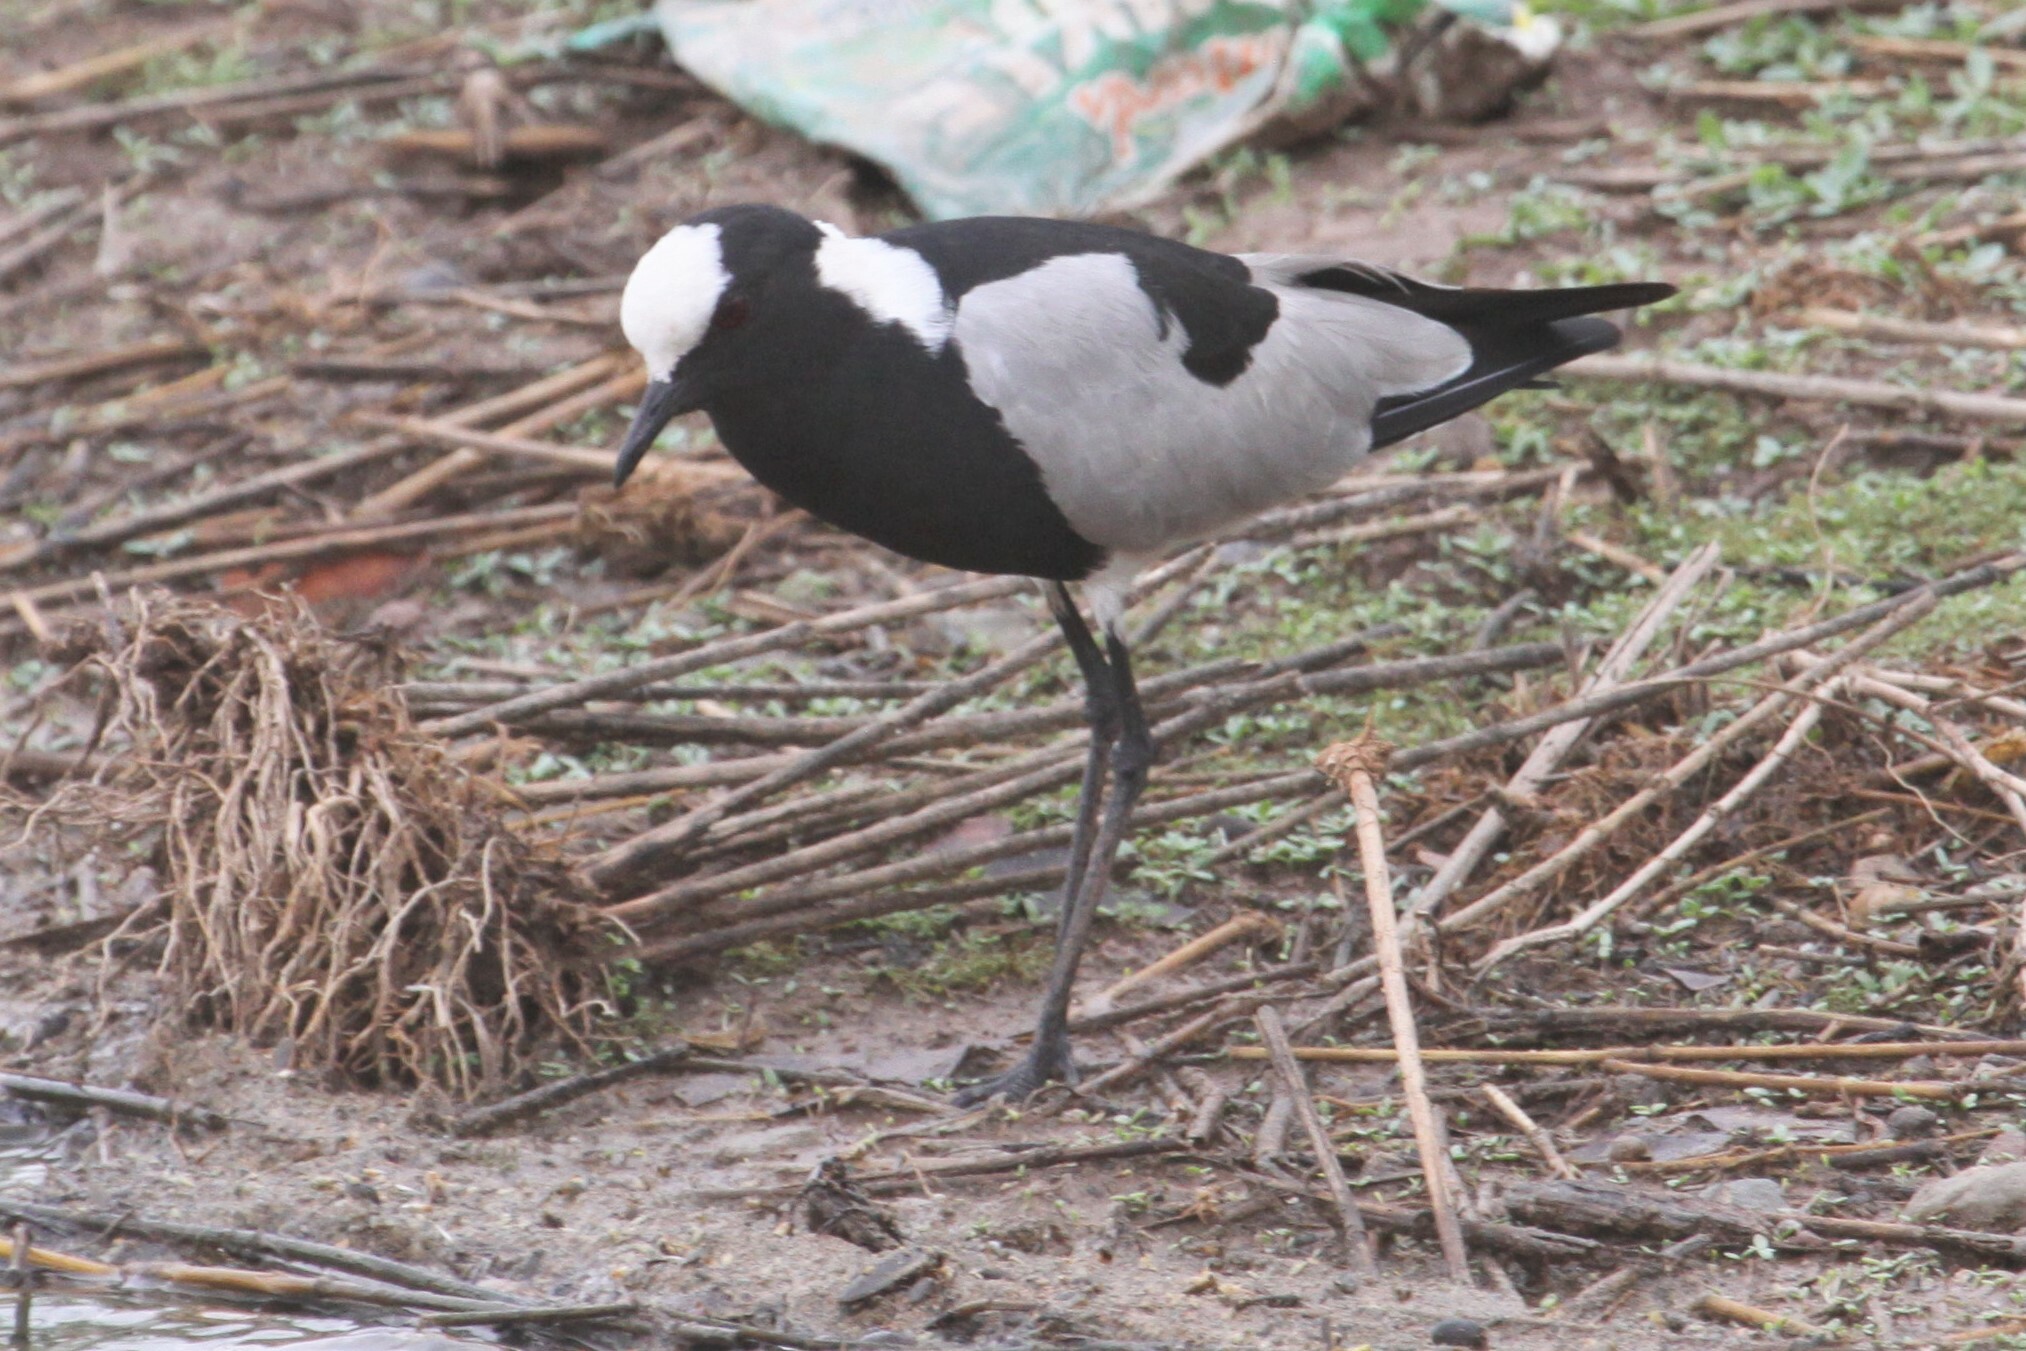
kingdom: Animalia
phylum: Chordata
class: Aves
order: Charadriiformes
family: Charadriidae
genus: Vanellus
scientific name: Vanellus armatus
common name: Blacksmith lapwing
